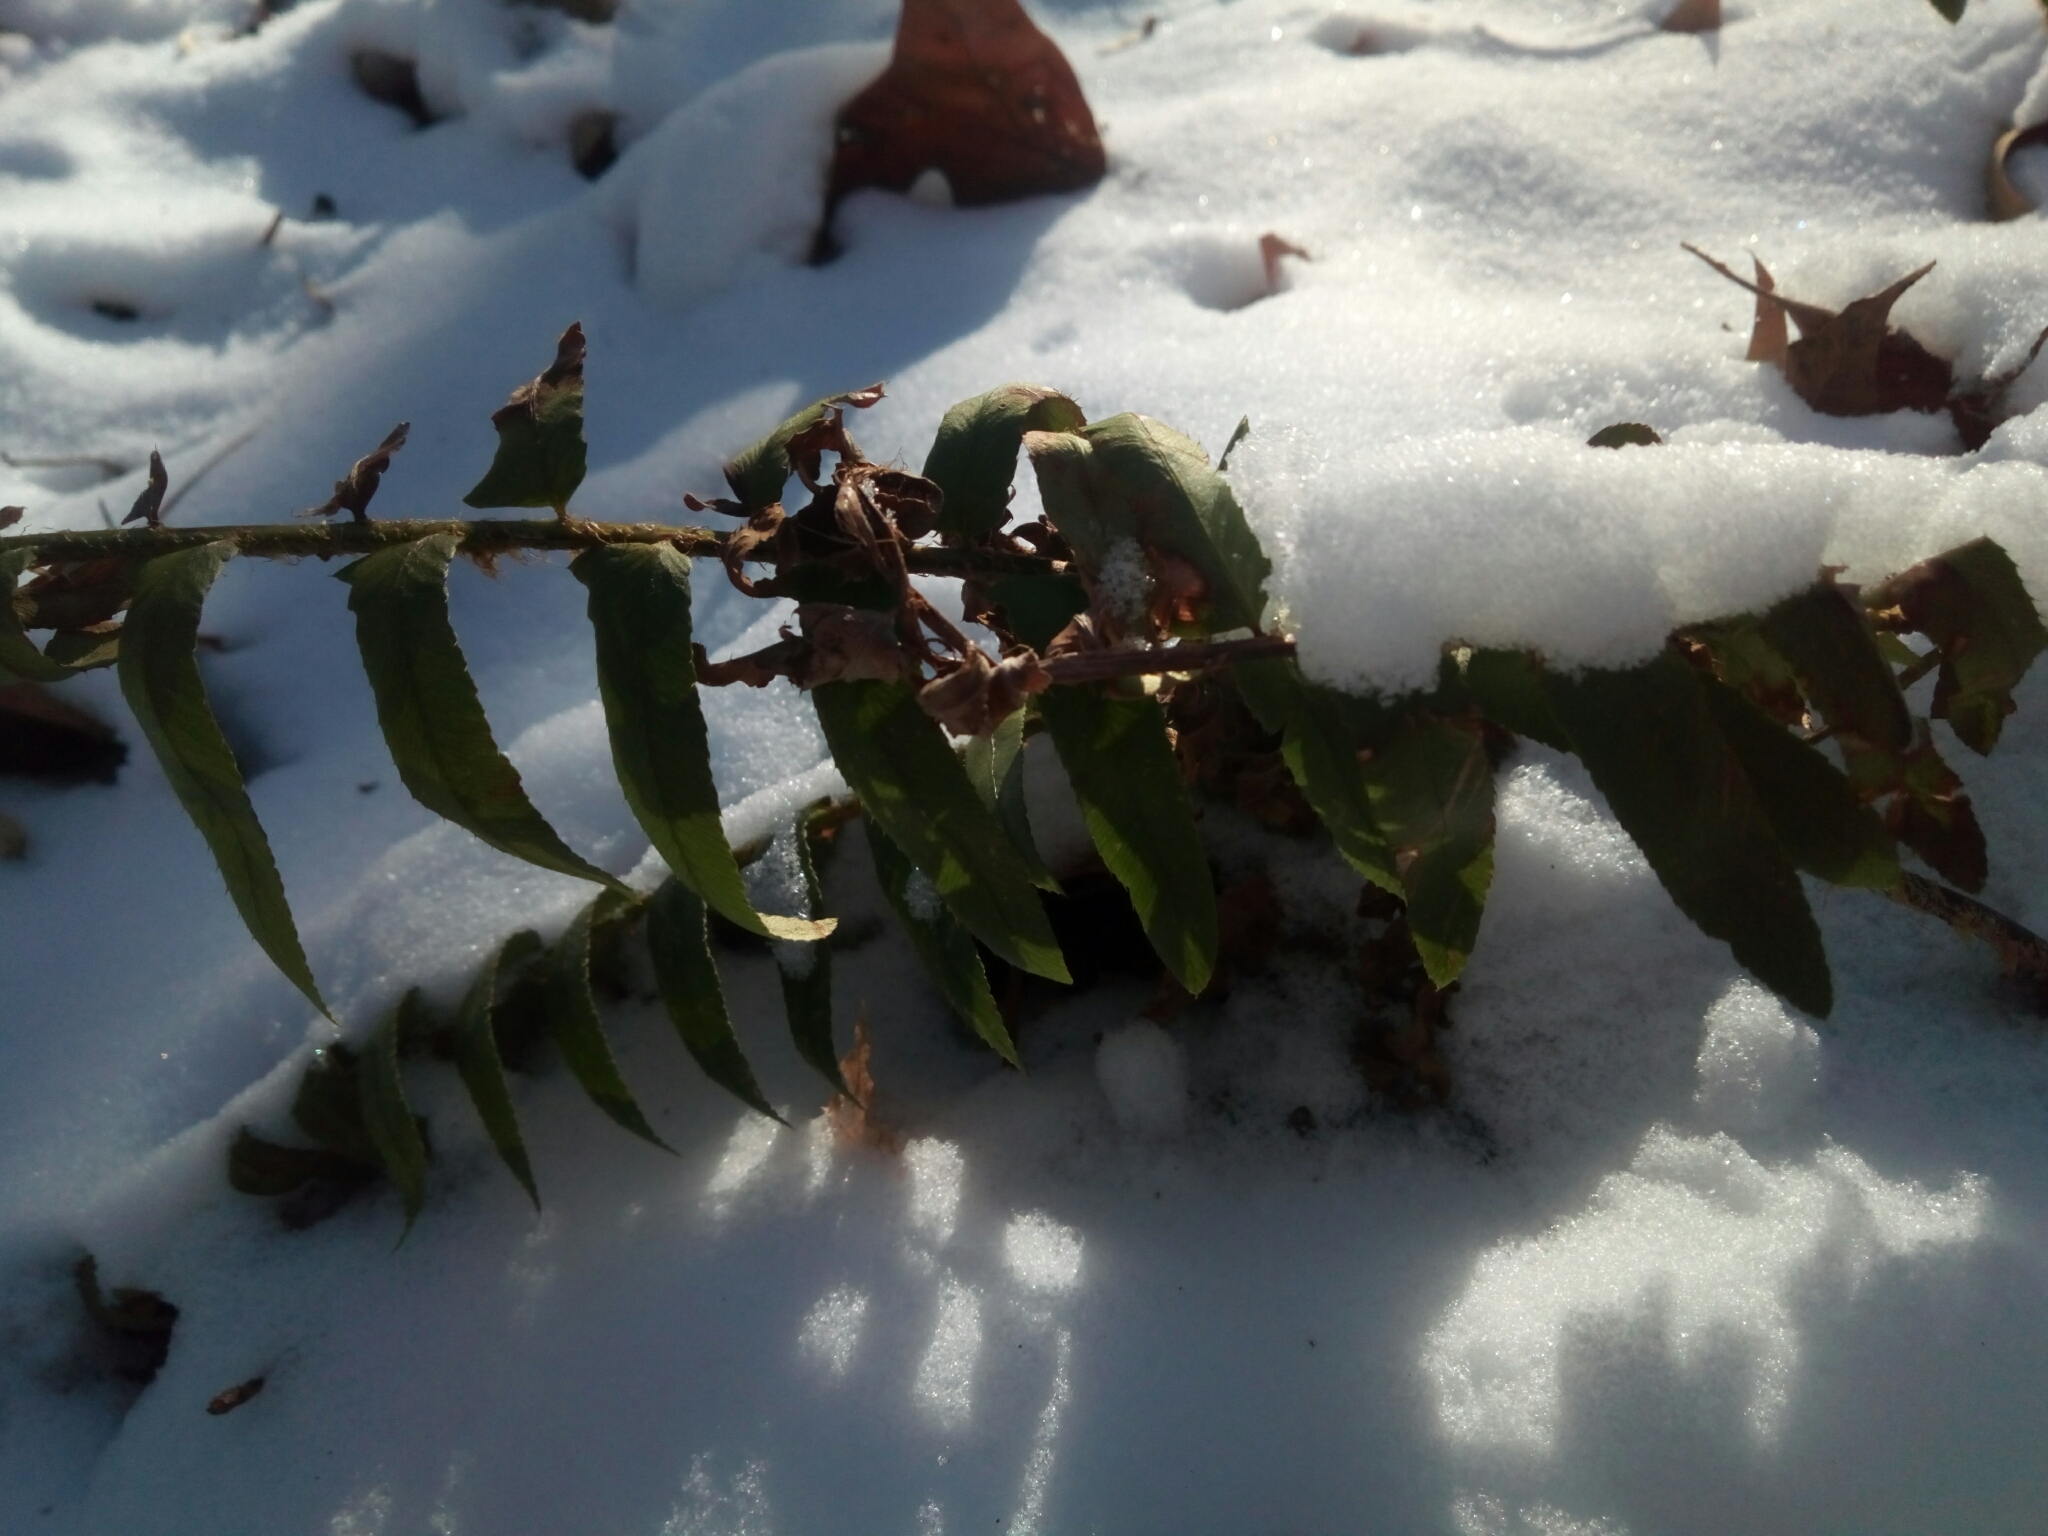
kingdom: Plantae
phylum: Tracheophyta
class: Polypodiopsida
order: Polypodiales
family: Dryopteridaceae
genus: Polystichum
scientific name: Polystichum acrostichoides
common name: Christmas fern
